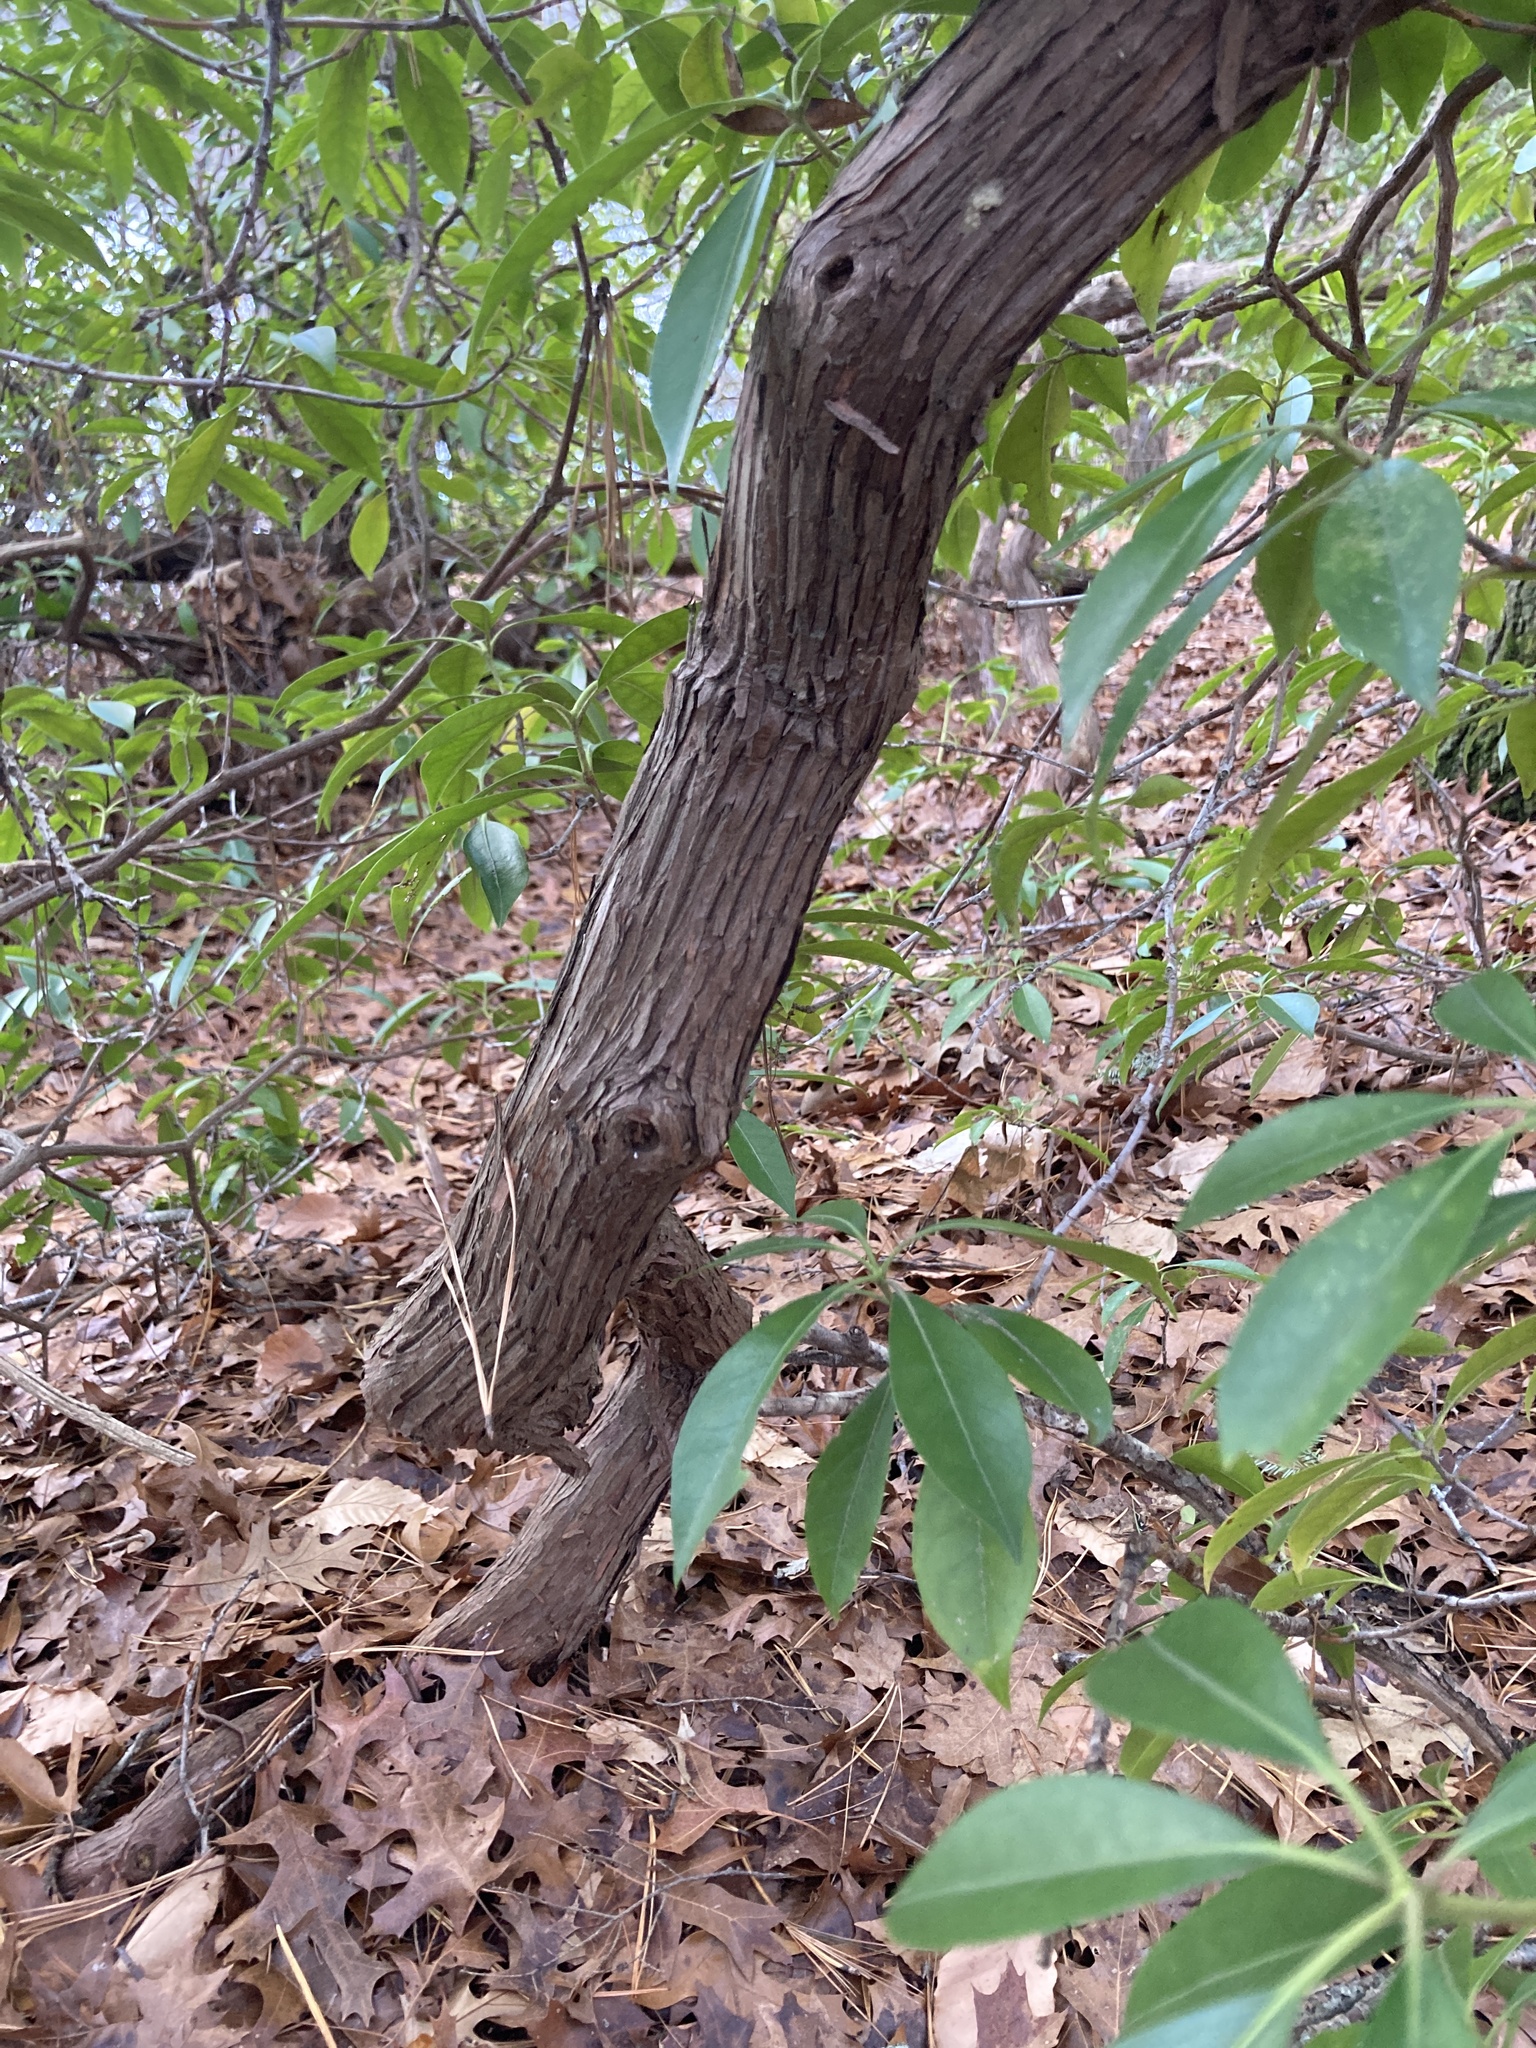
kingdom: Plantae
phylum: Tracheophyta
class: Magnoliopsida
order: Ericales
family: Ericaceae
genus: Kalmia
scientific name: Kalmia latifolia
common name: Mountain-laurel
